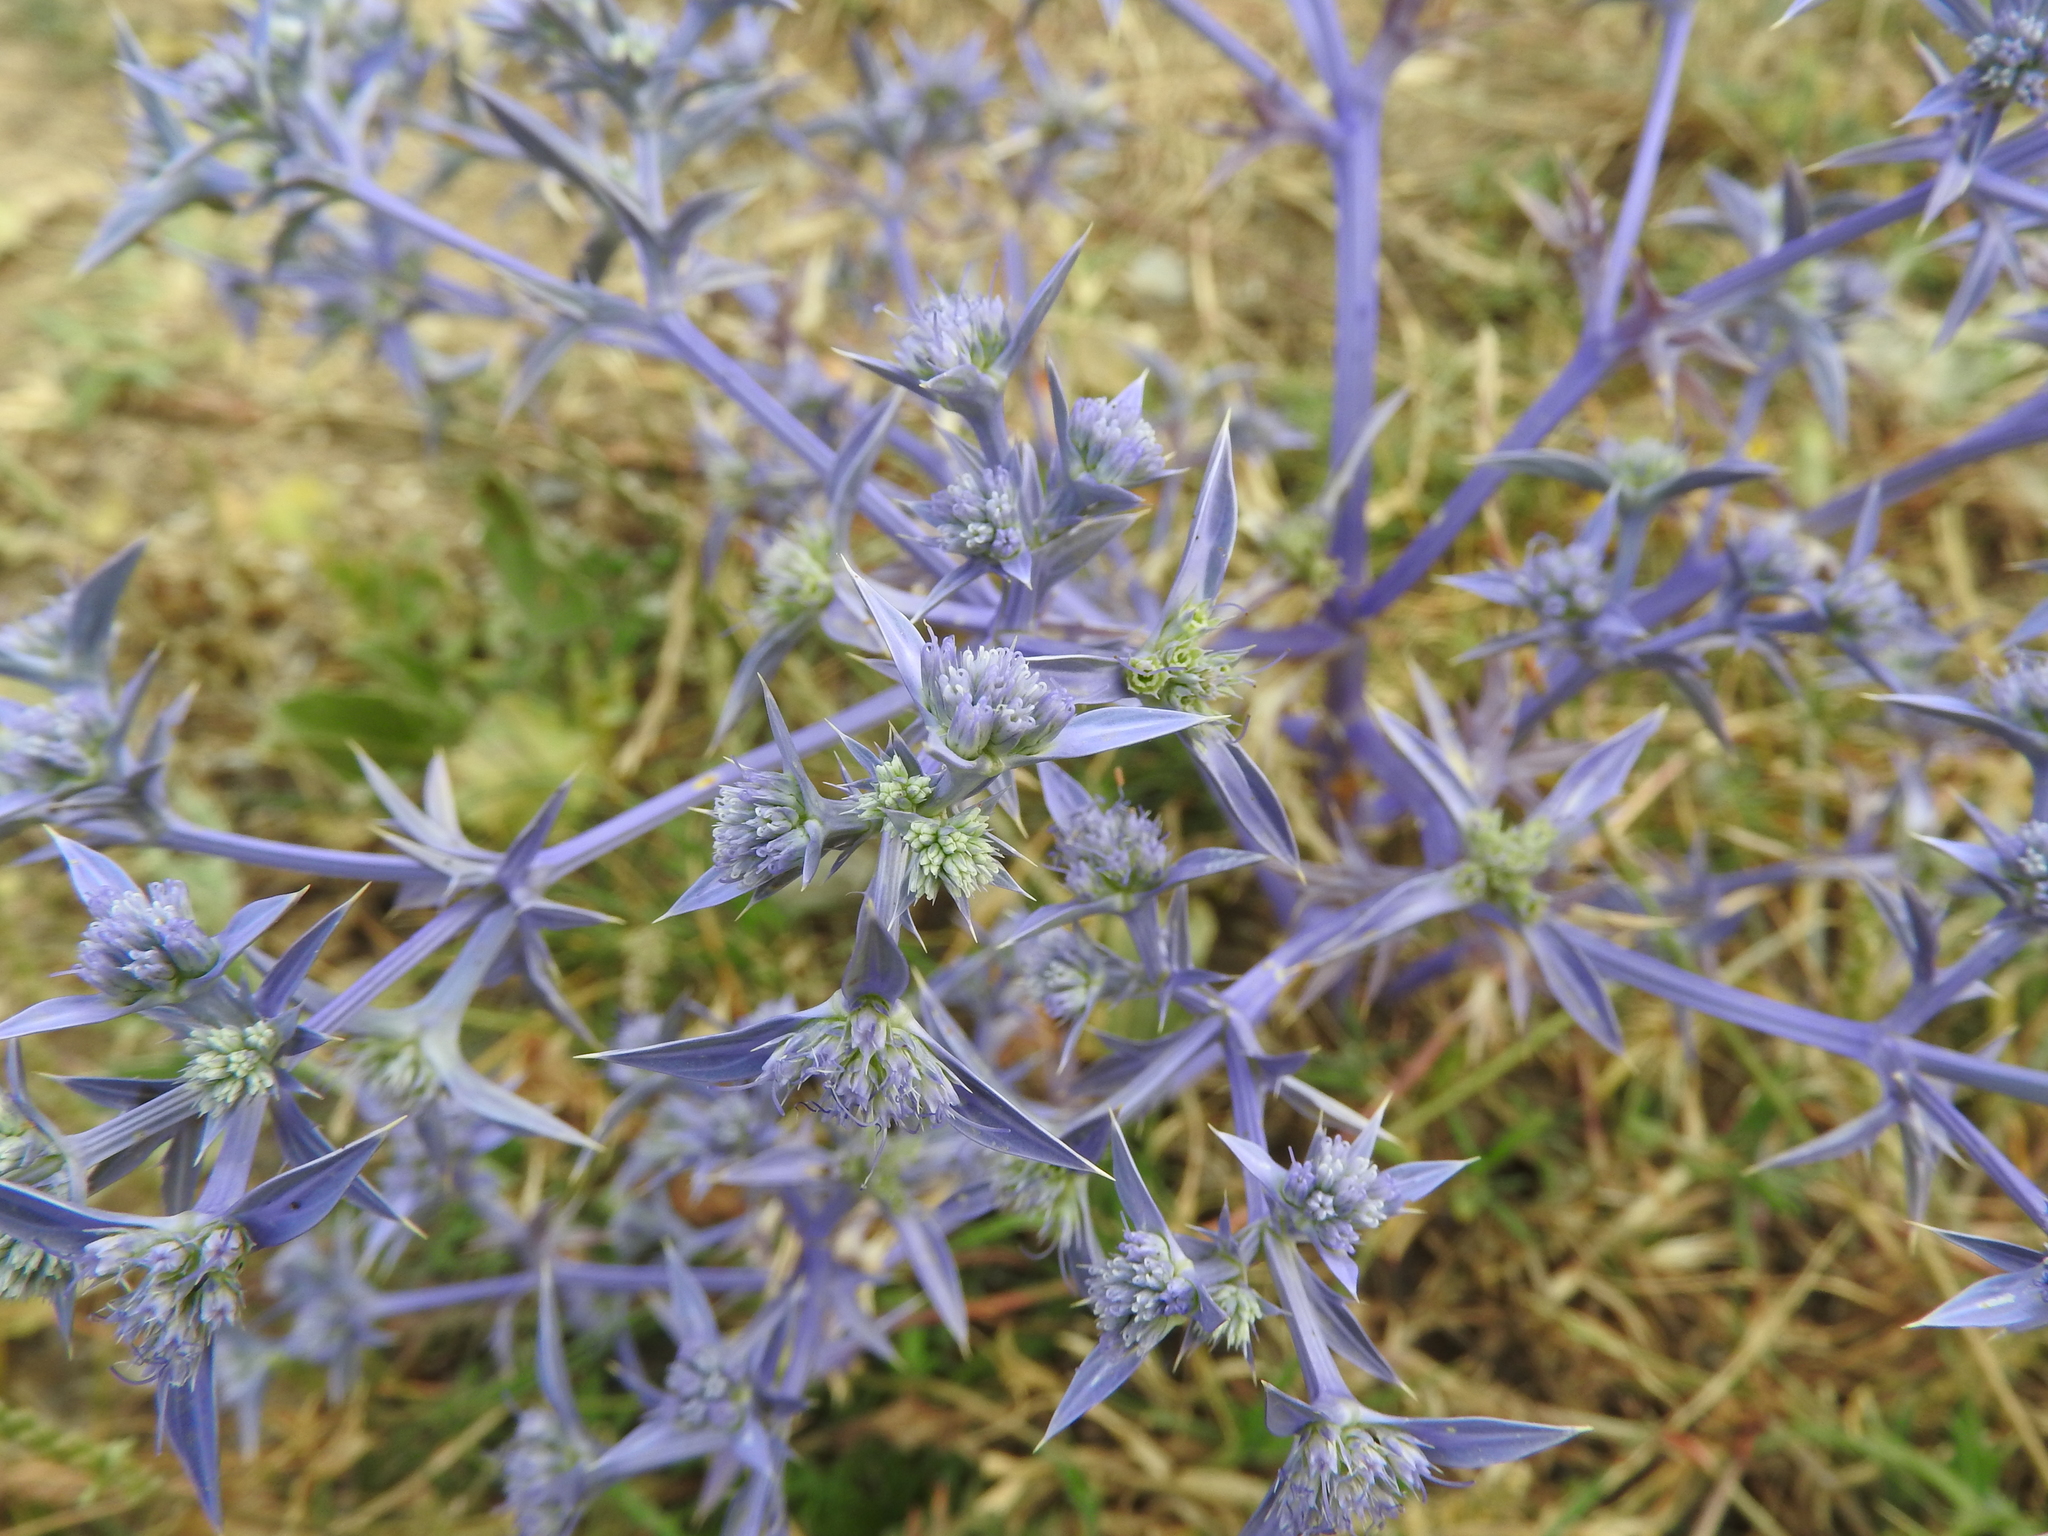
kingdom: Plantae
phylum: Tracheophyta
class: Magnoliopsida
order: Apiales
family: Apiaceae
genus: Eryngium
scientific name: Eryngium triquetrum
